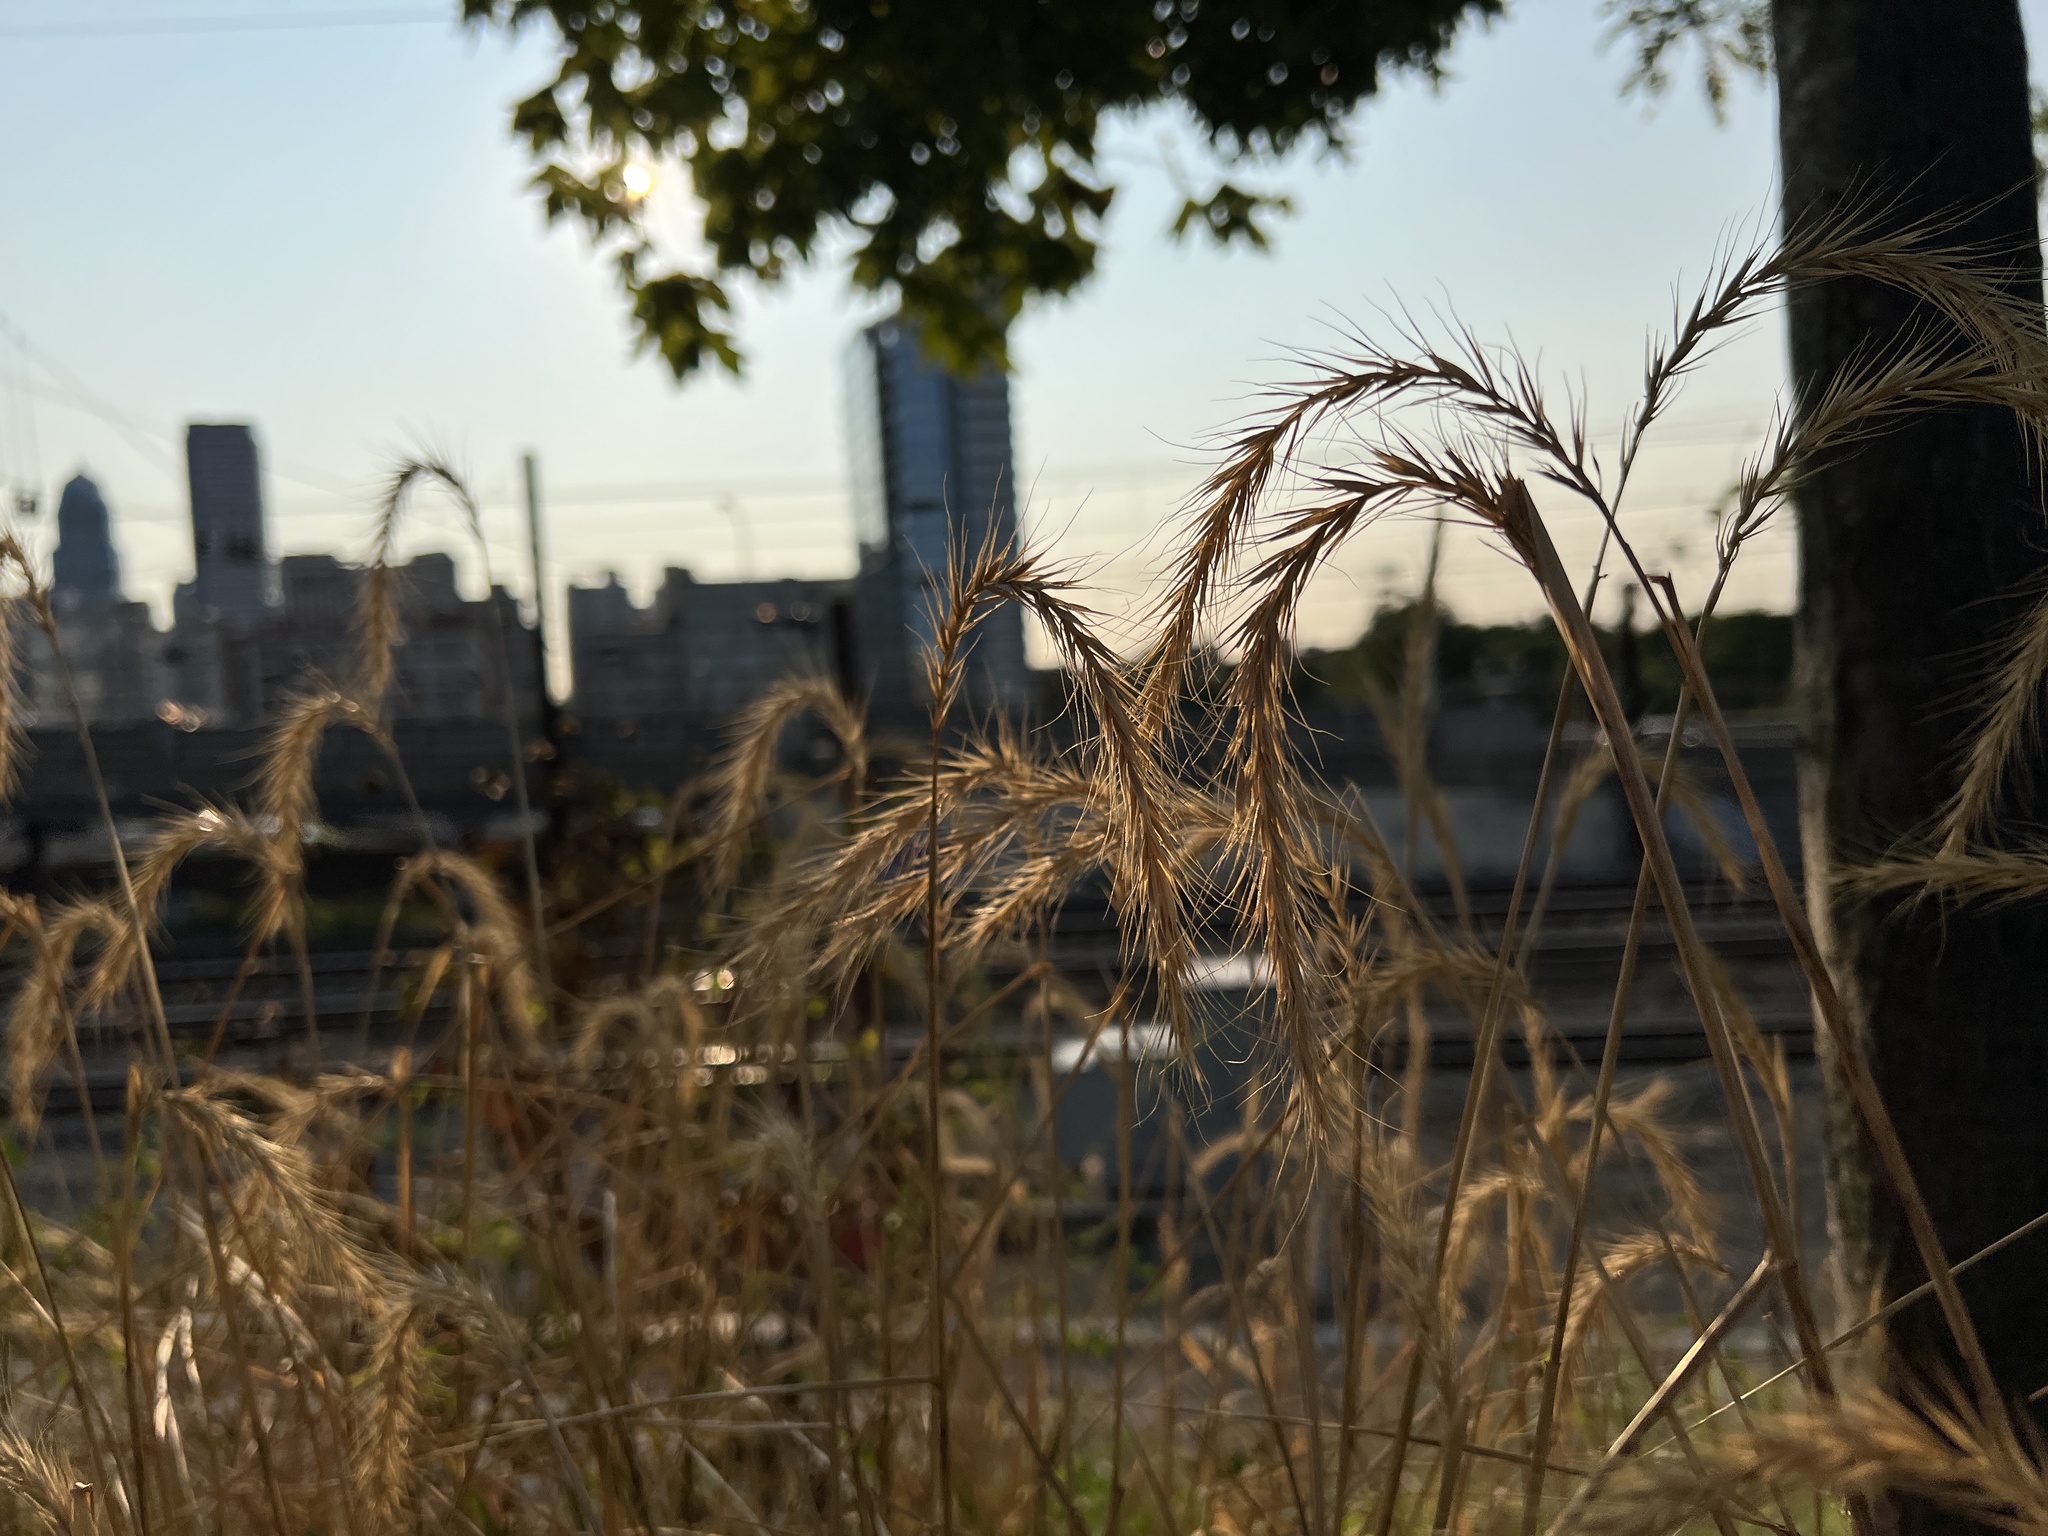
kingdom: Plantae
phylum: Tracheophyta
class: Liliopsida
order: Poales
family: Poaceae
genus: Elymus
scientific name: Elymus canadensis
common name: Canada wild rye
